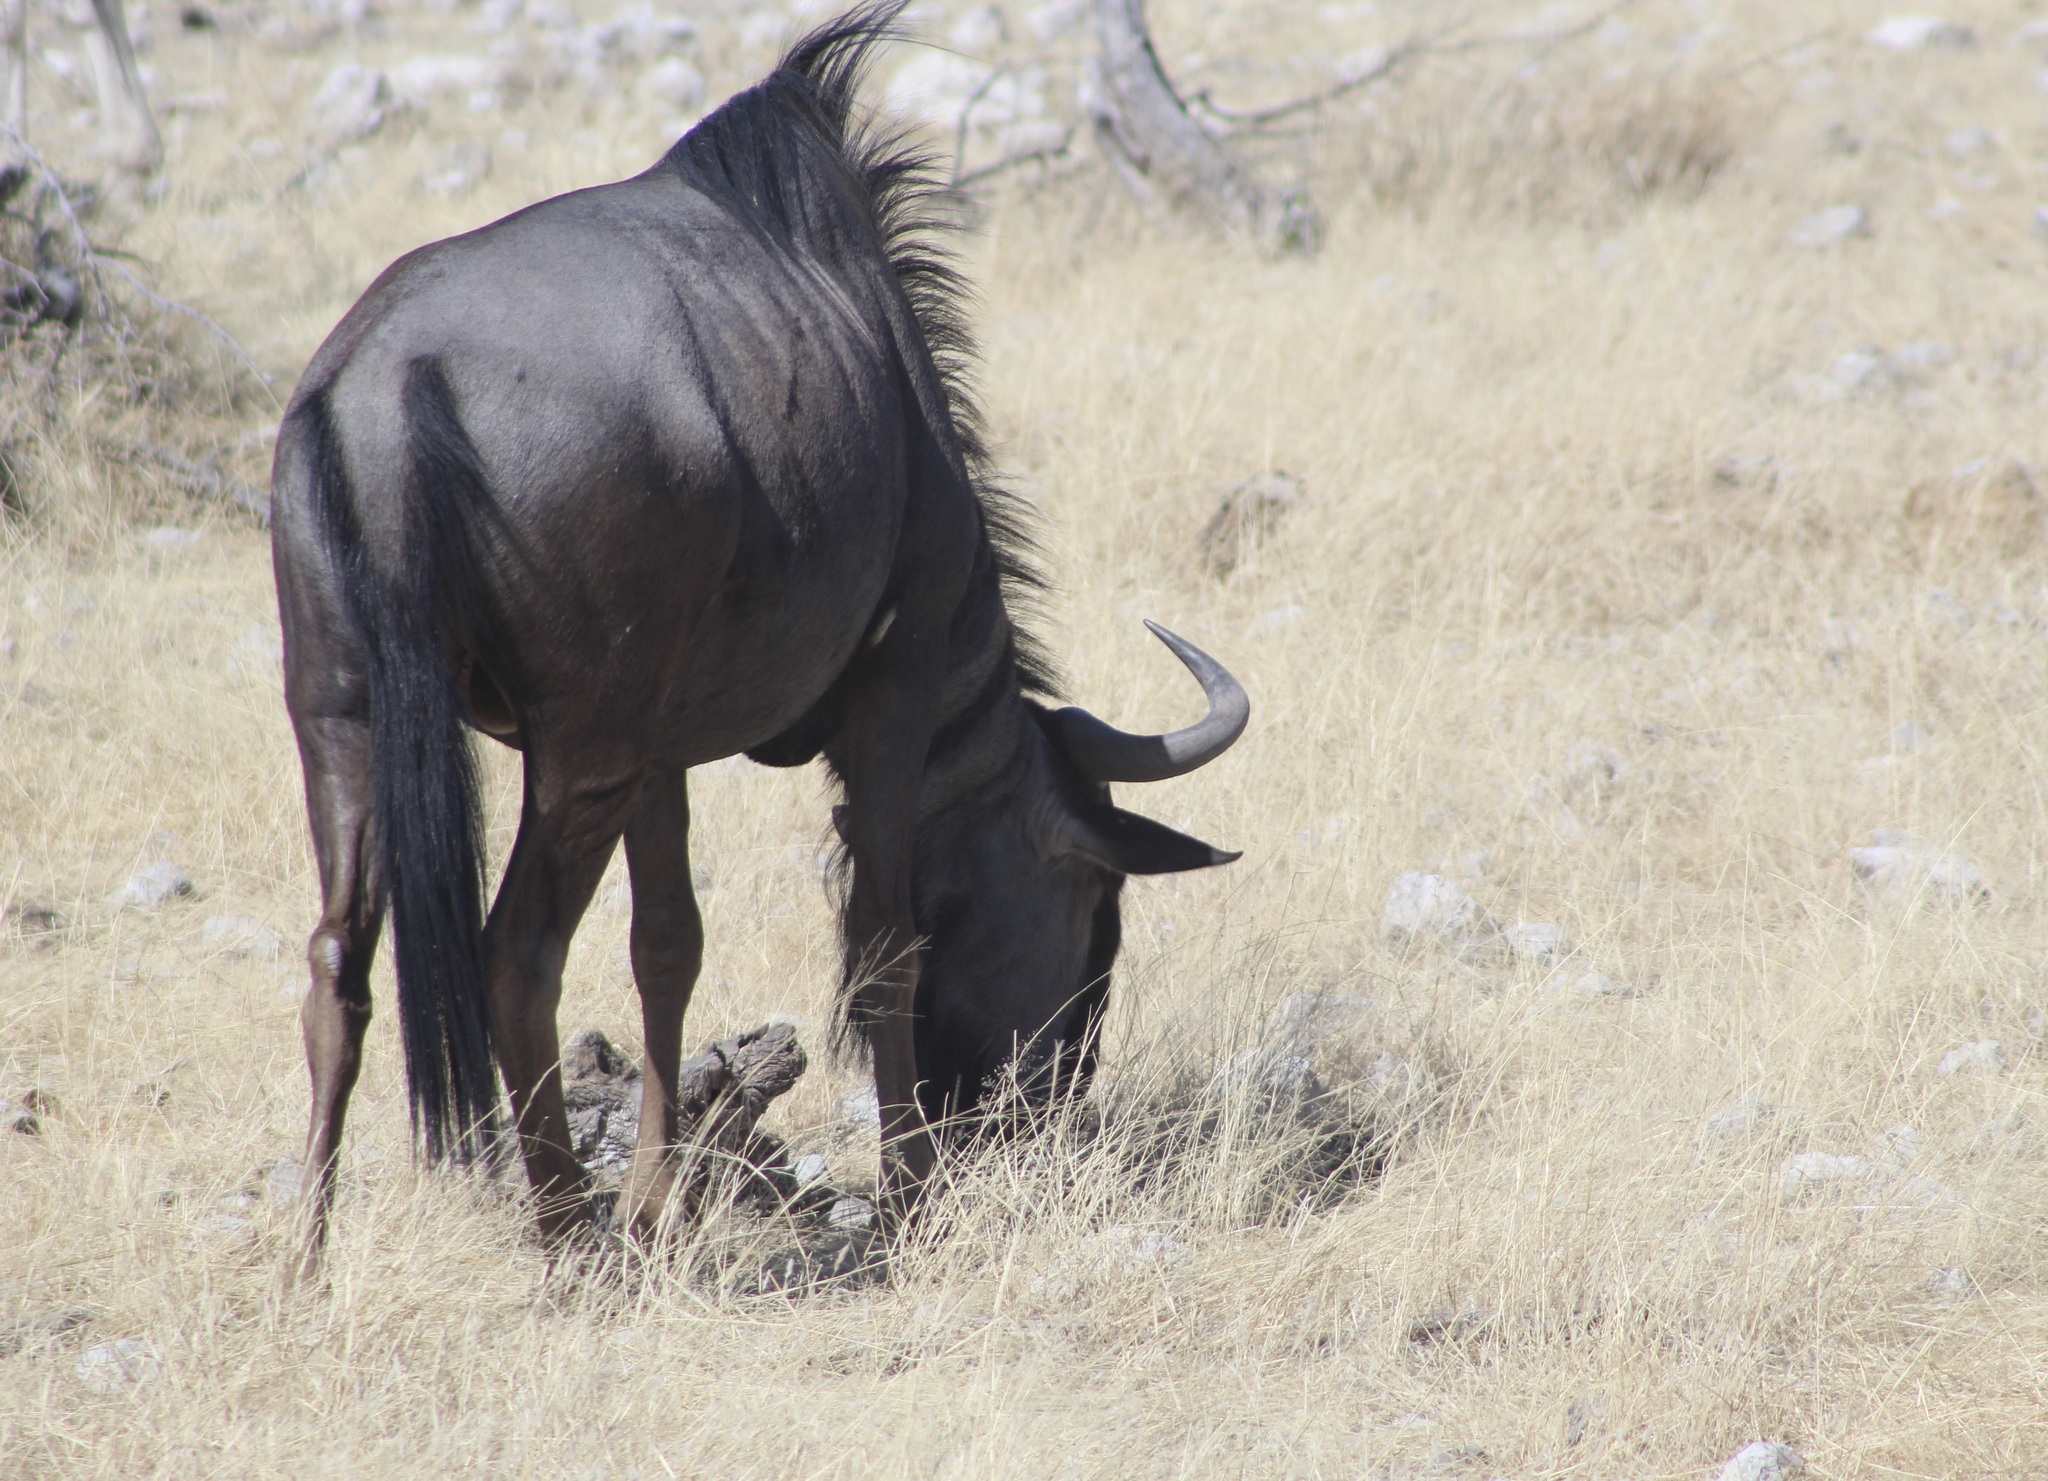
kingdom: Animalia
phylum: Chordata
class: Mammalia
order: Artiodactyla
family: Bovidae
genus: Connochaetes
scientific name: Connochaetes taurinus
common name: Blue wildebeest
